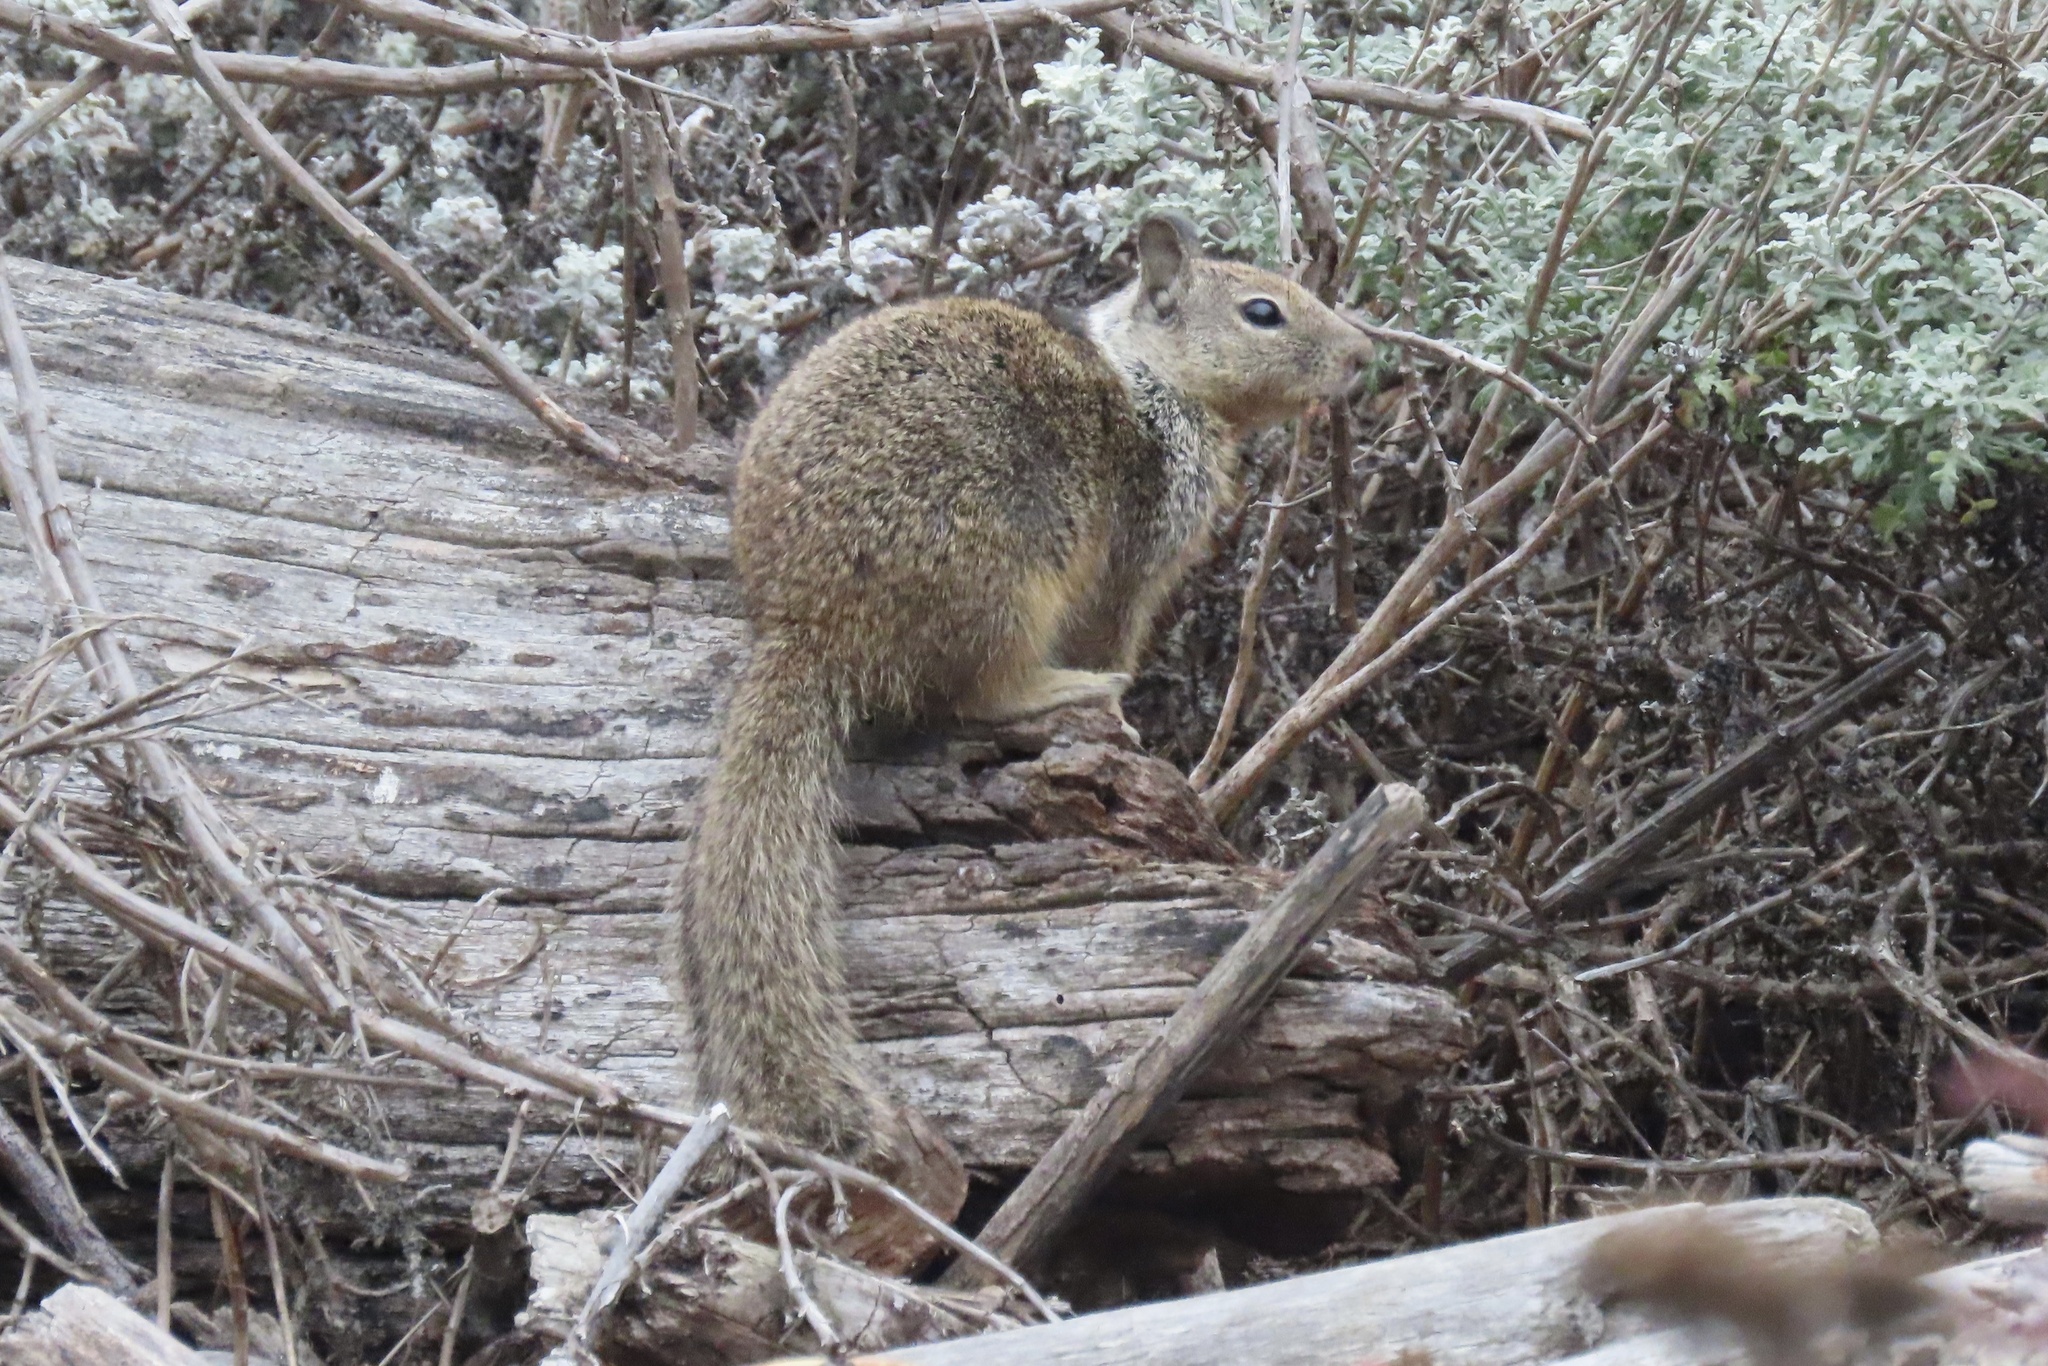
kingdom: Animalia
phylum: Chordata
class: Mammalia
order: Rodentia
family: Sciuridae
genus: Otospermophilus
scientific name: Otospermophilus beecheyi
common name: California ground squirrel
